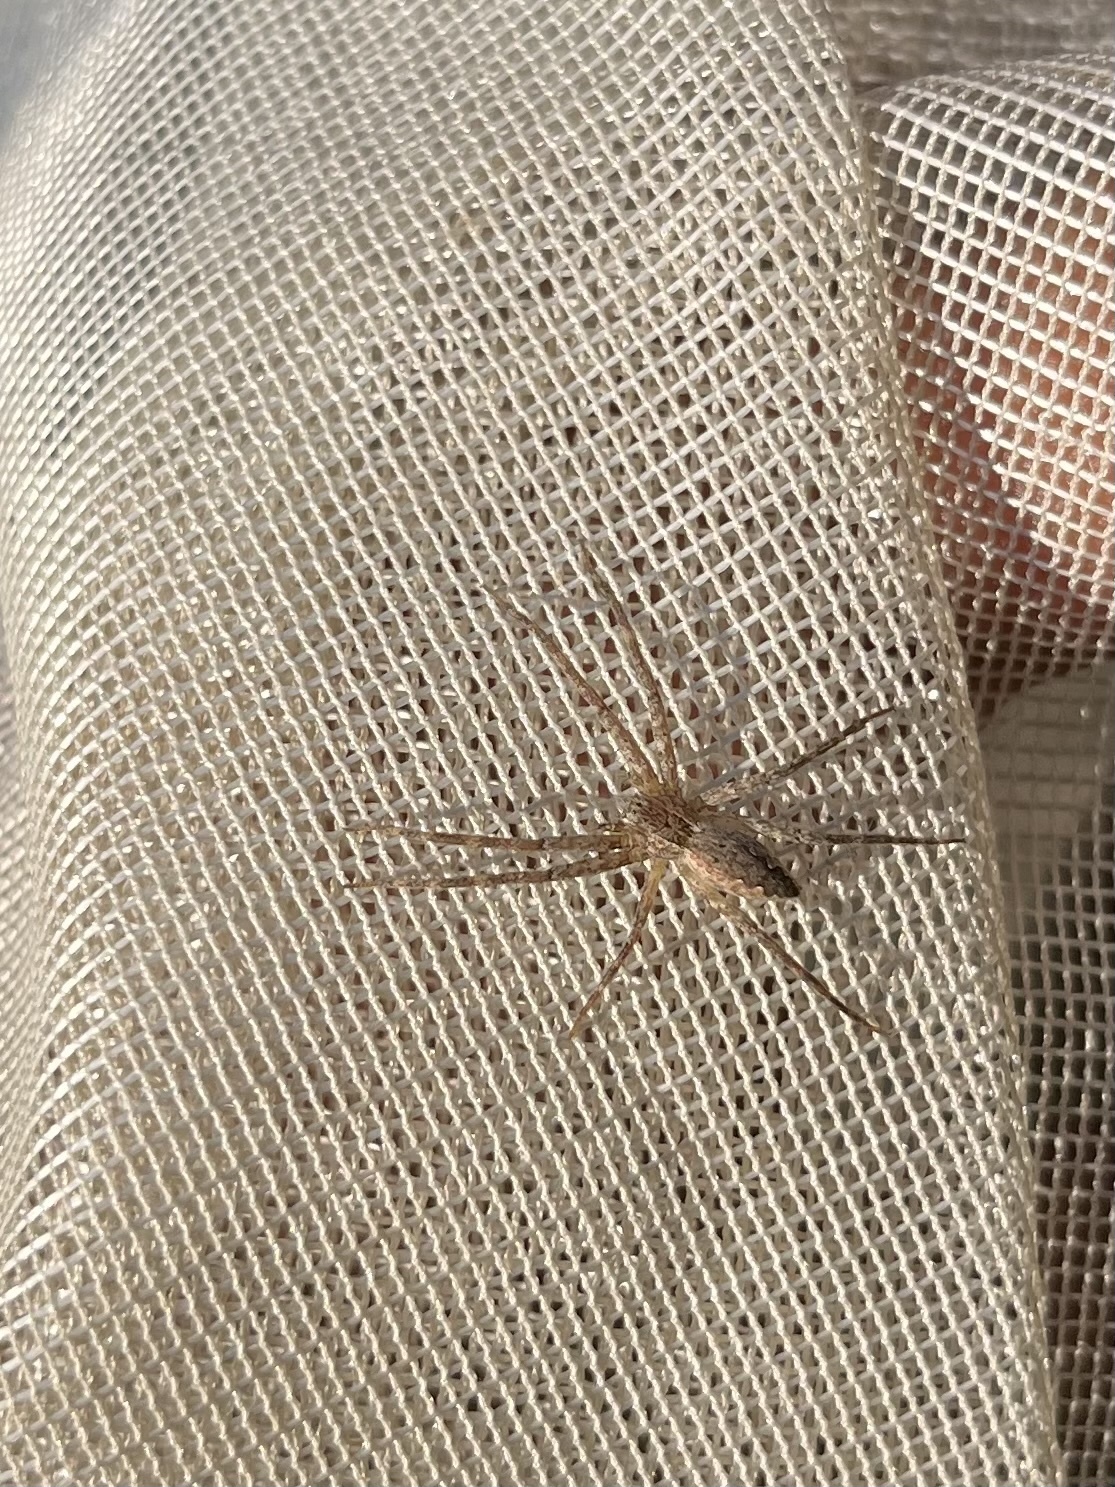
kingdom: Animalia
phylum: Arthropoda
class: Arachnida
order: Araneae
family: Pisauridae
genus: Pisaurina
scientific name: Pisaurina mira
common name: American nursery web spider
